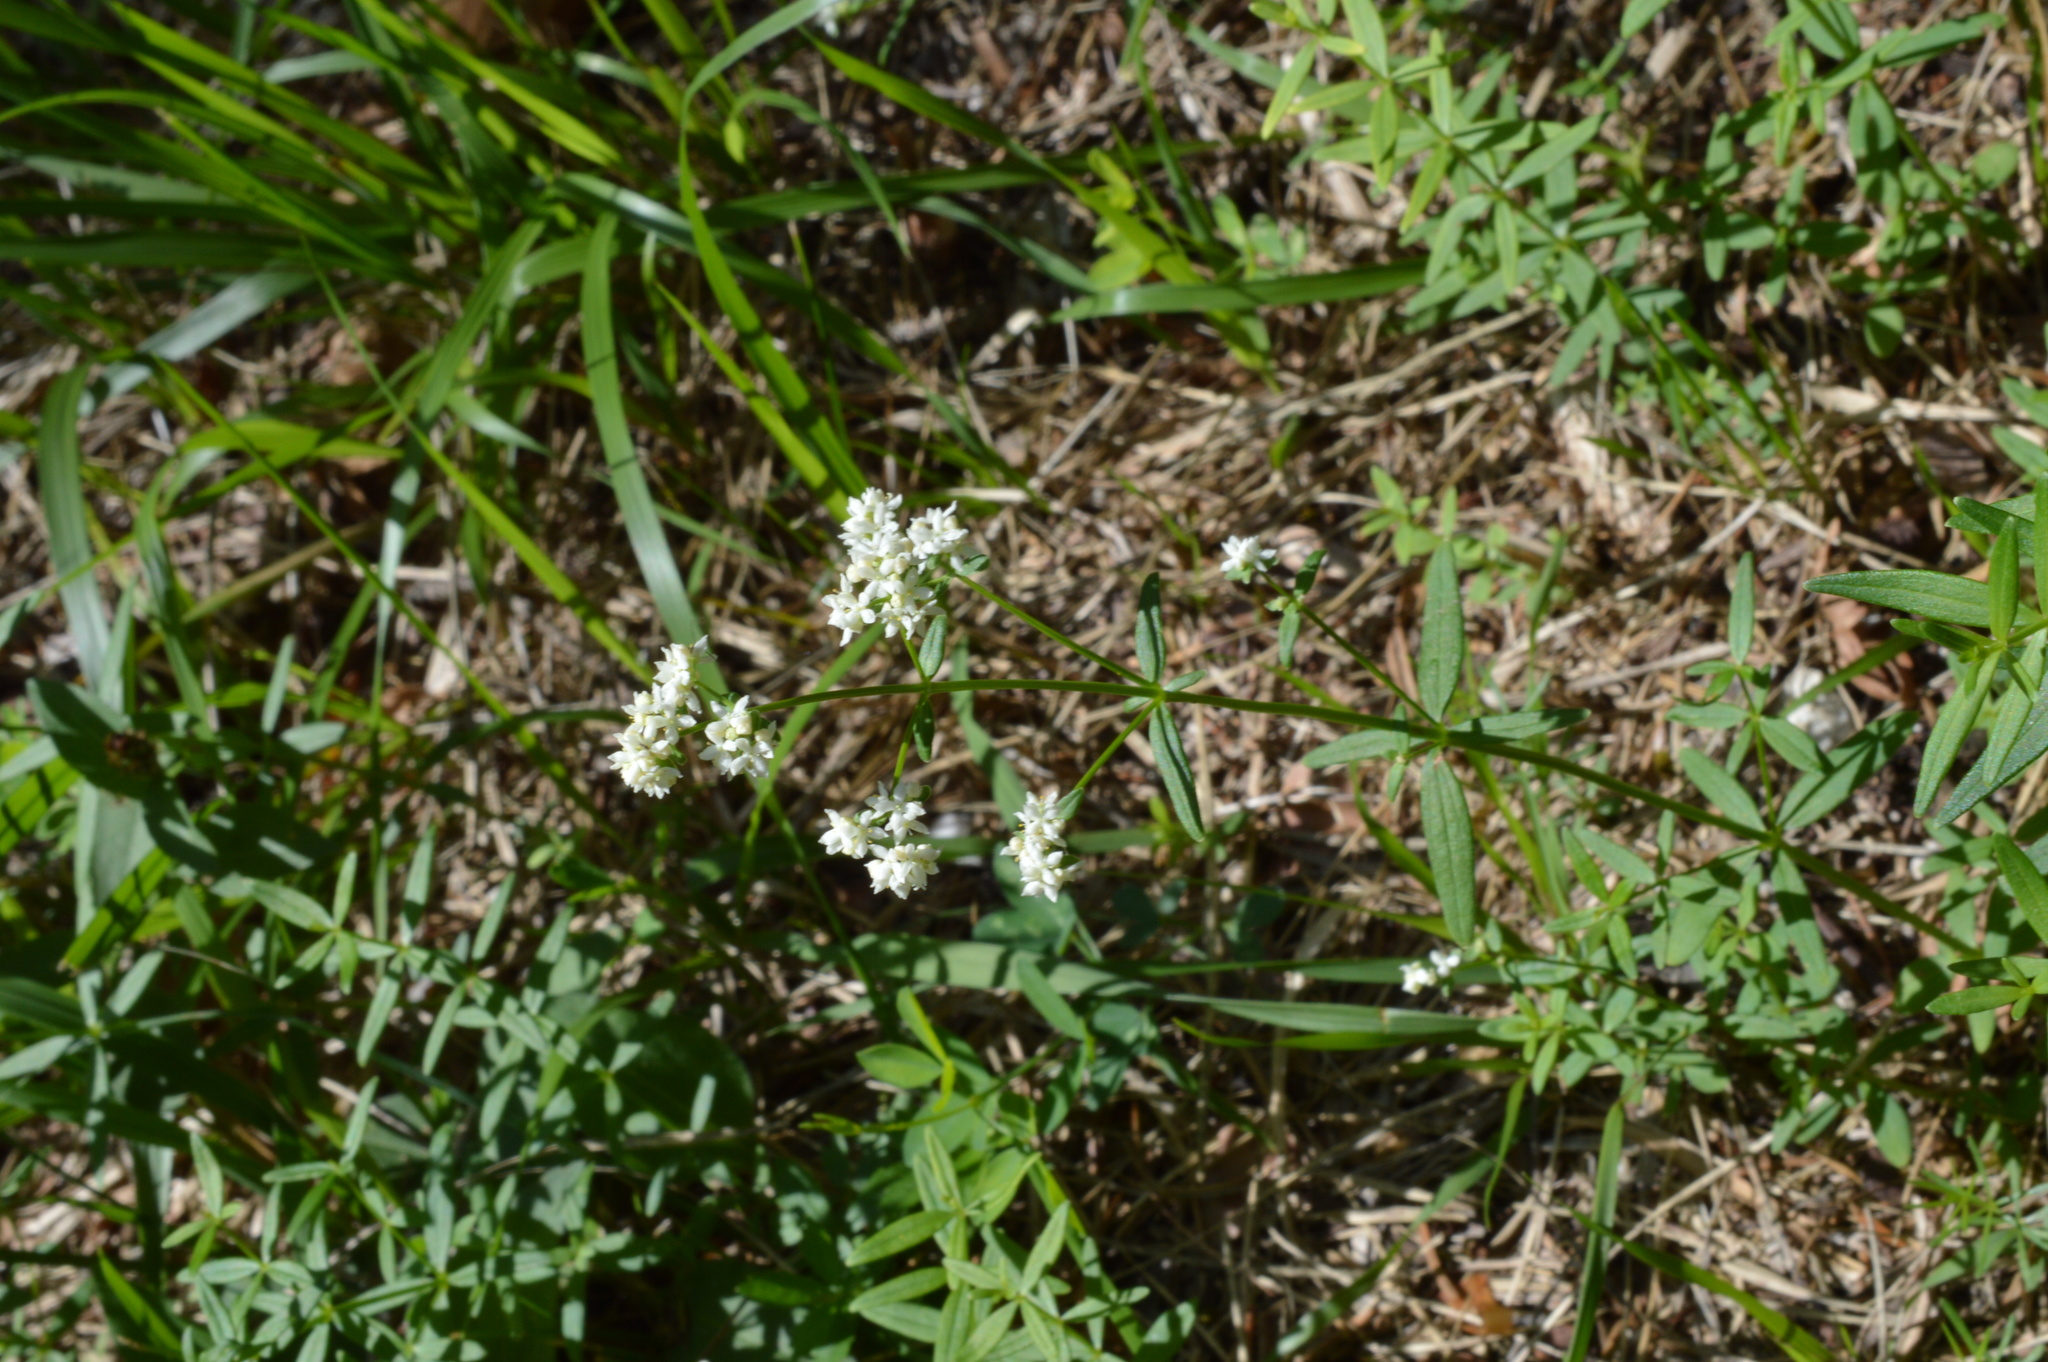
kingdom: Plantae
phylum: Tracheophyta
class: Magnoliopsida
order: Gentianales
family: Rubiaceae
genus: Galium
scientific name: Galium boreale
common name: Northern bedstraw
